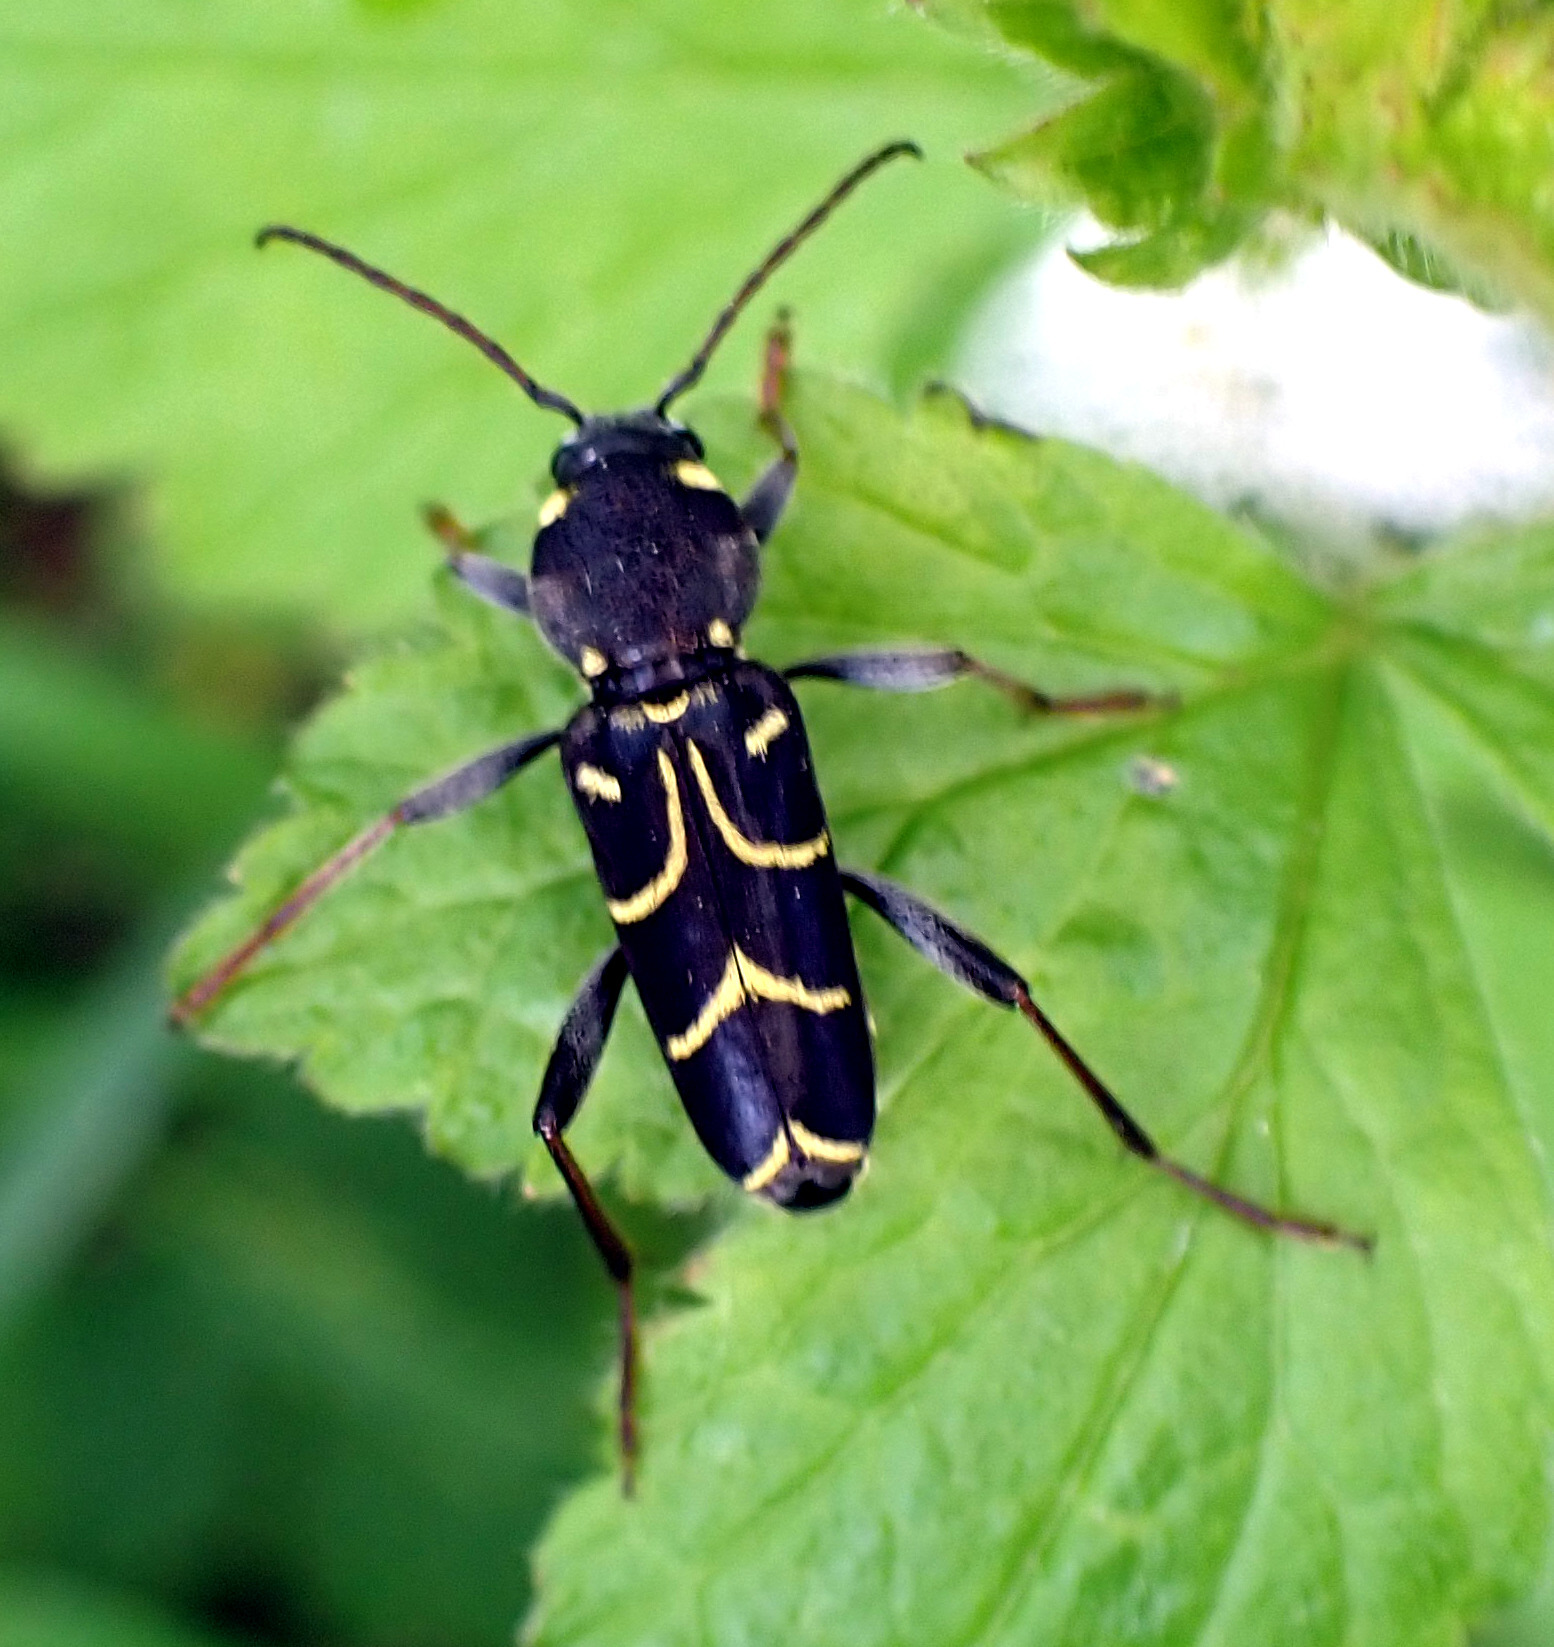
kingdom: Animalia
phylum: Arthropoda
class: Insecta
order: Coleoptera
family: Cerambycidae
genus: Xylotrechus
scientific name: Xylotrechus antilope
